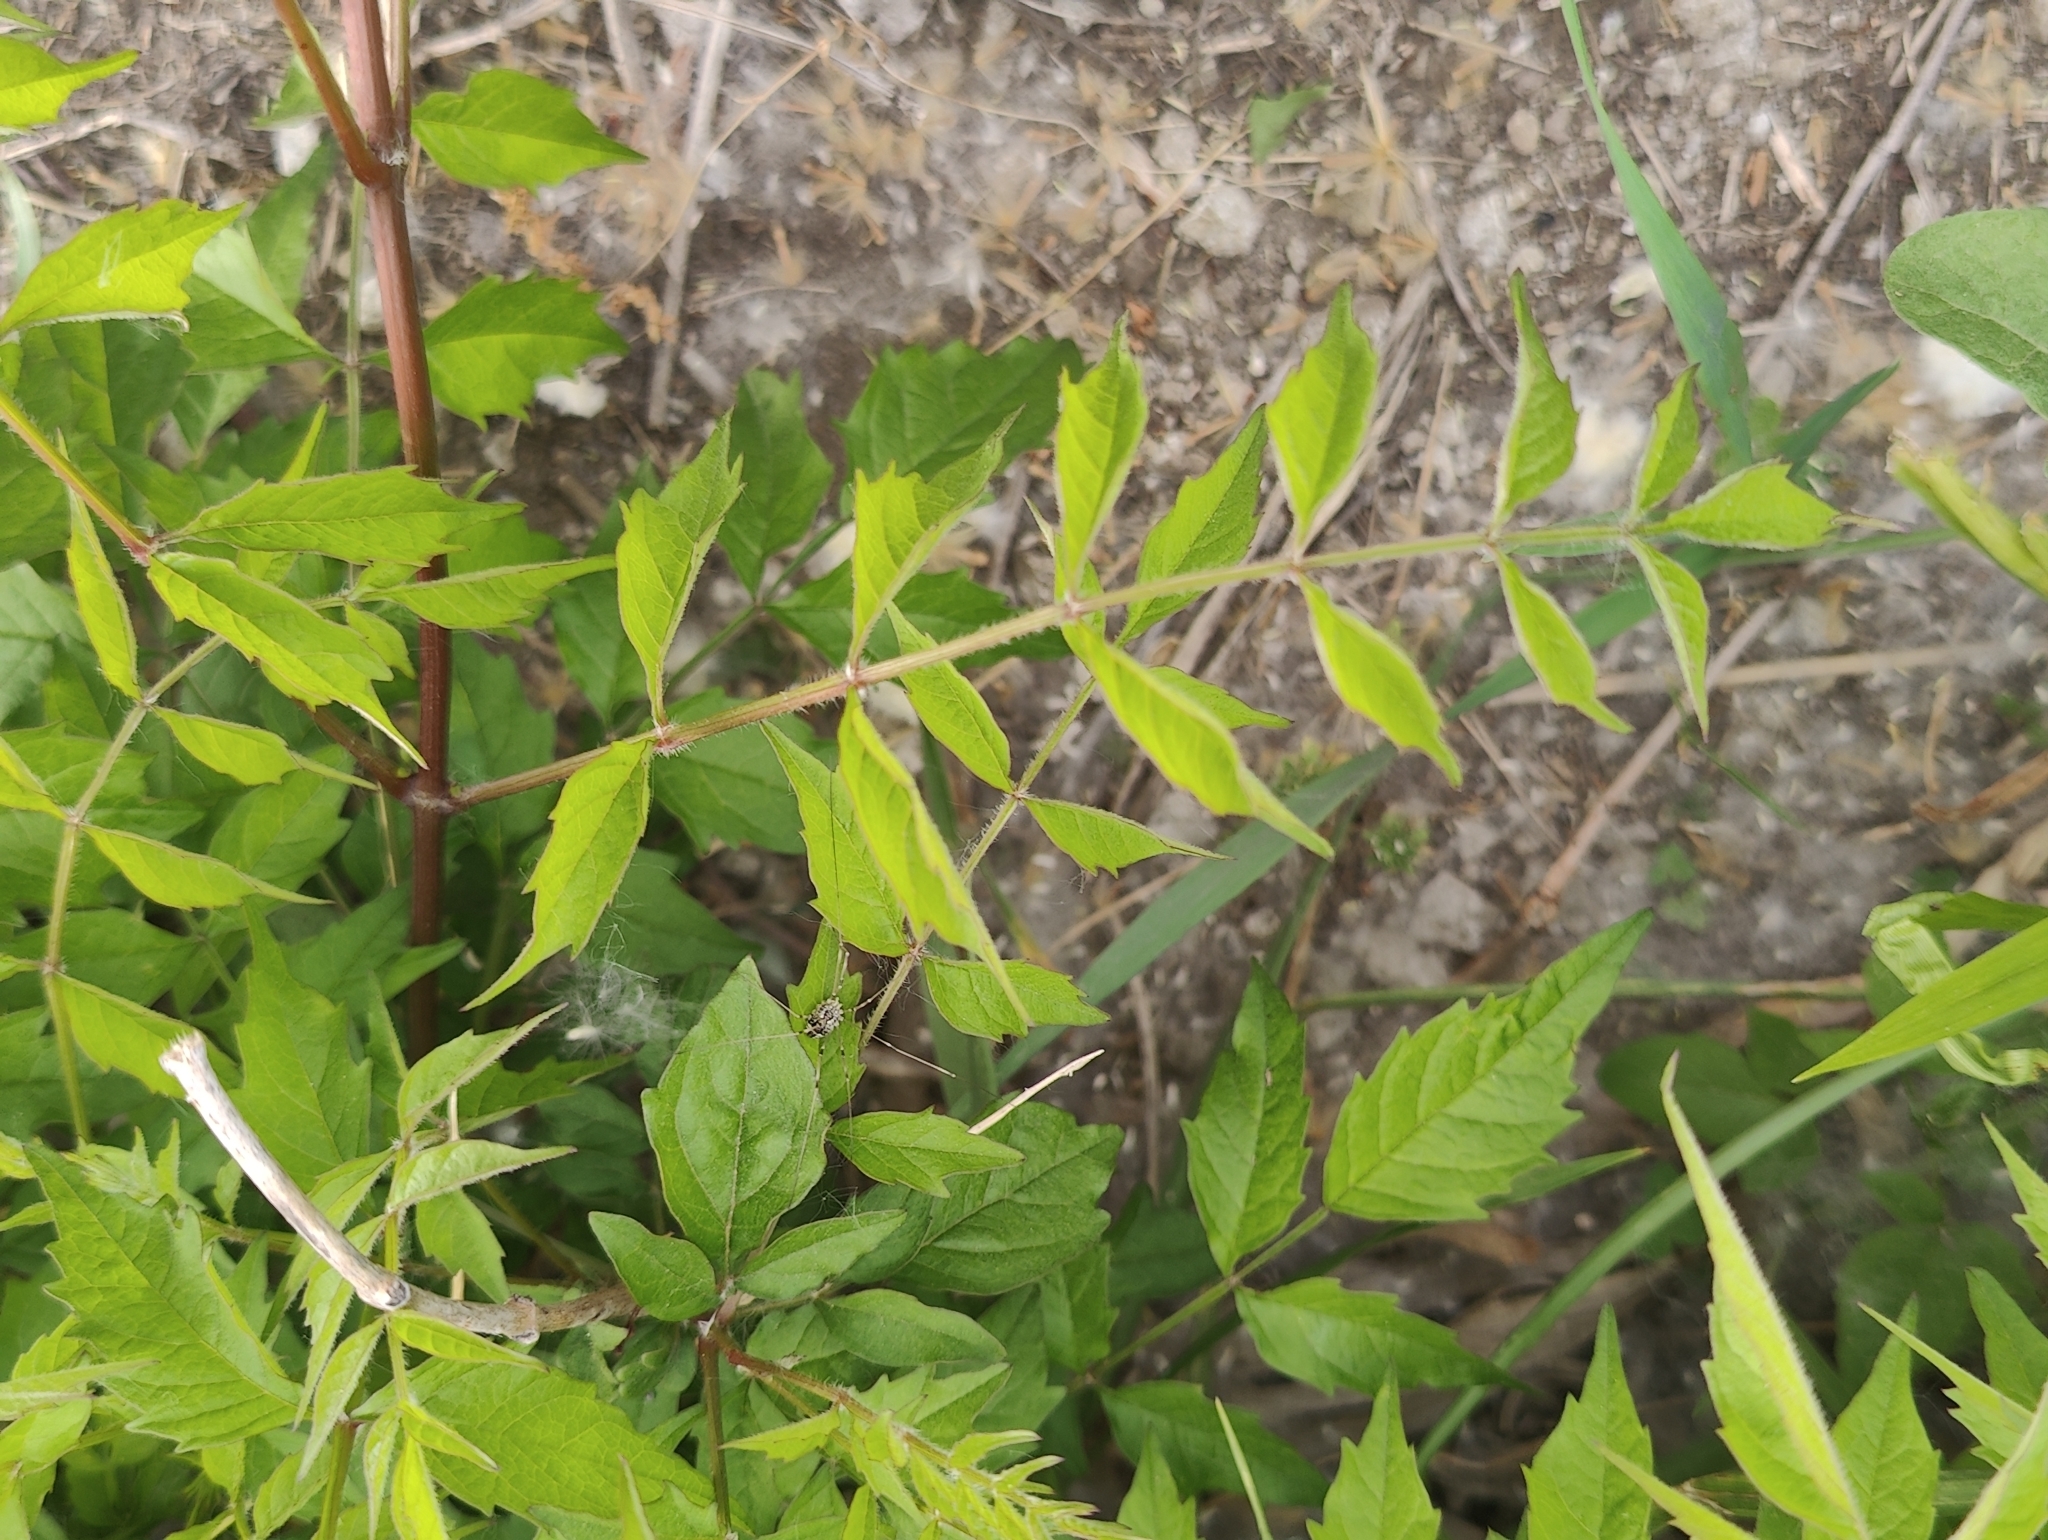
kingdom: Plantae
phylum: Tracheophyta
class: Magnoliopsida
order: Lamiales
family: Bignoniaceae
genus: Campsis
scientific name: Campsis radicans
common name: Trumpet-creeper
